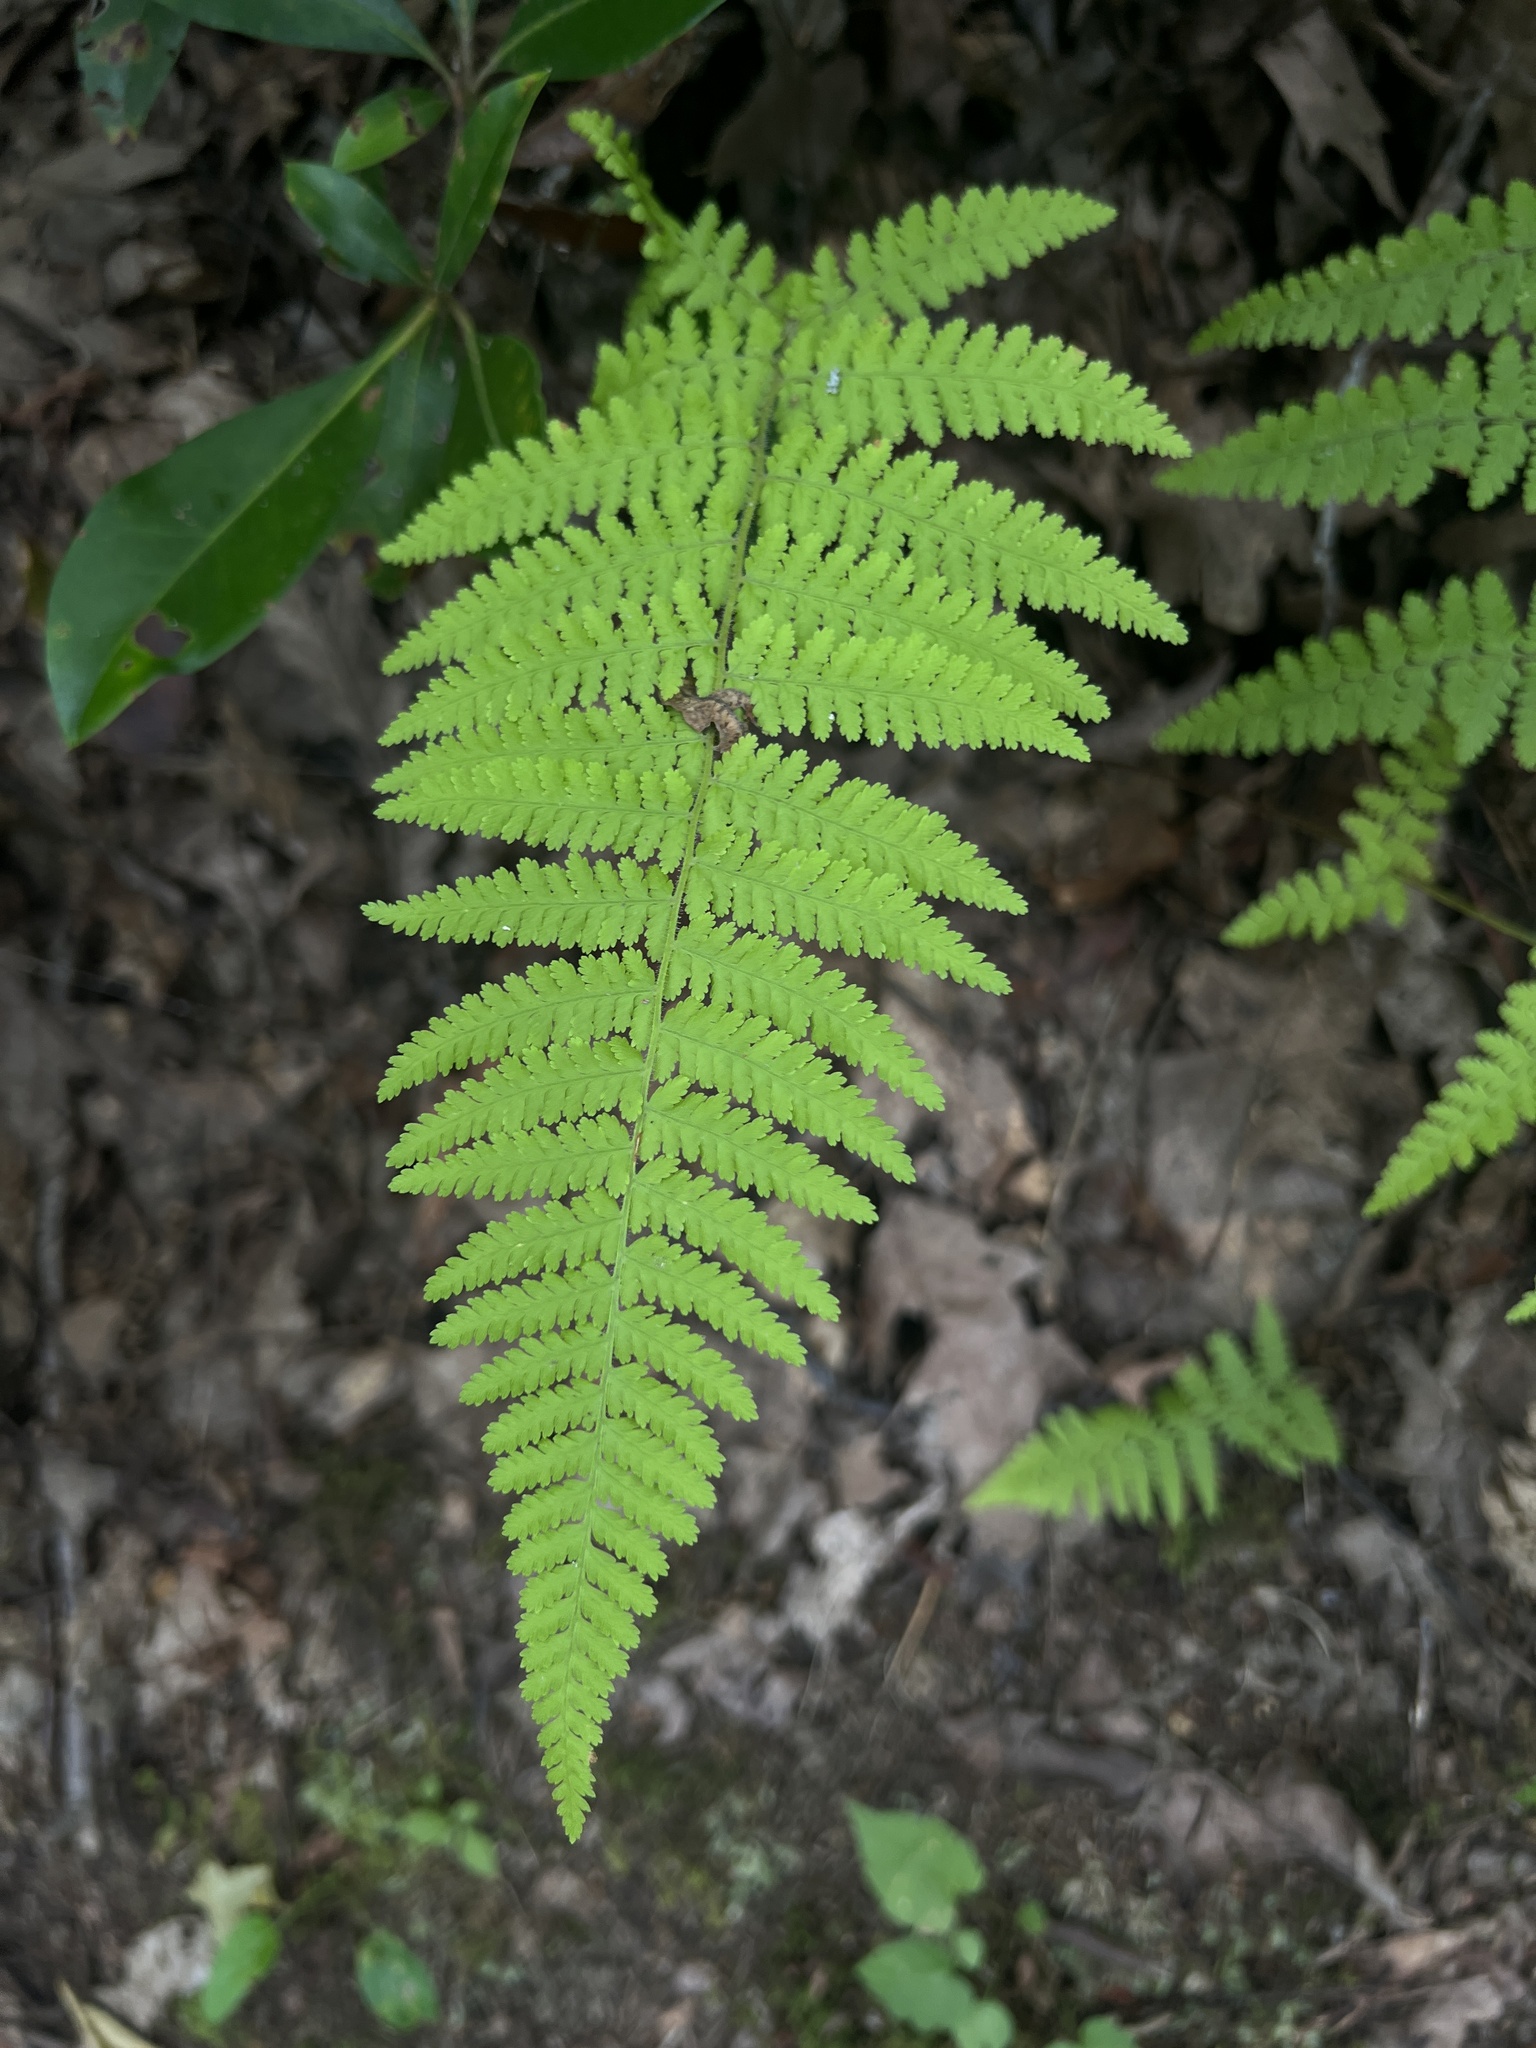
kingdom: Plantae
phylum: Tracheophyta
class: Polypodiopsida
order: Polypodiales
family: Dennstaedtiaceae
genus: Sitobolium
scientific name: Sitobolium punctilobum
